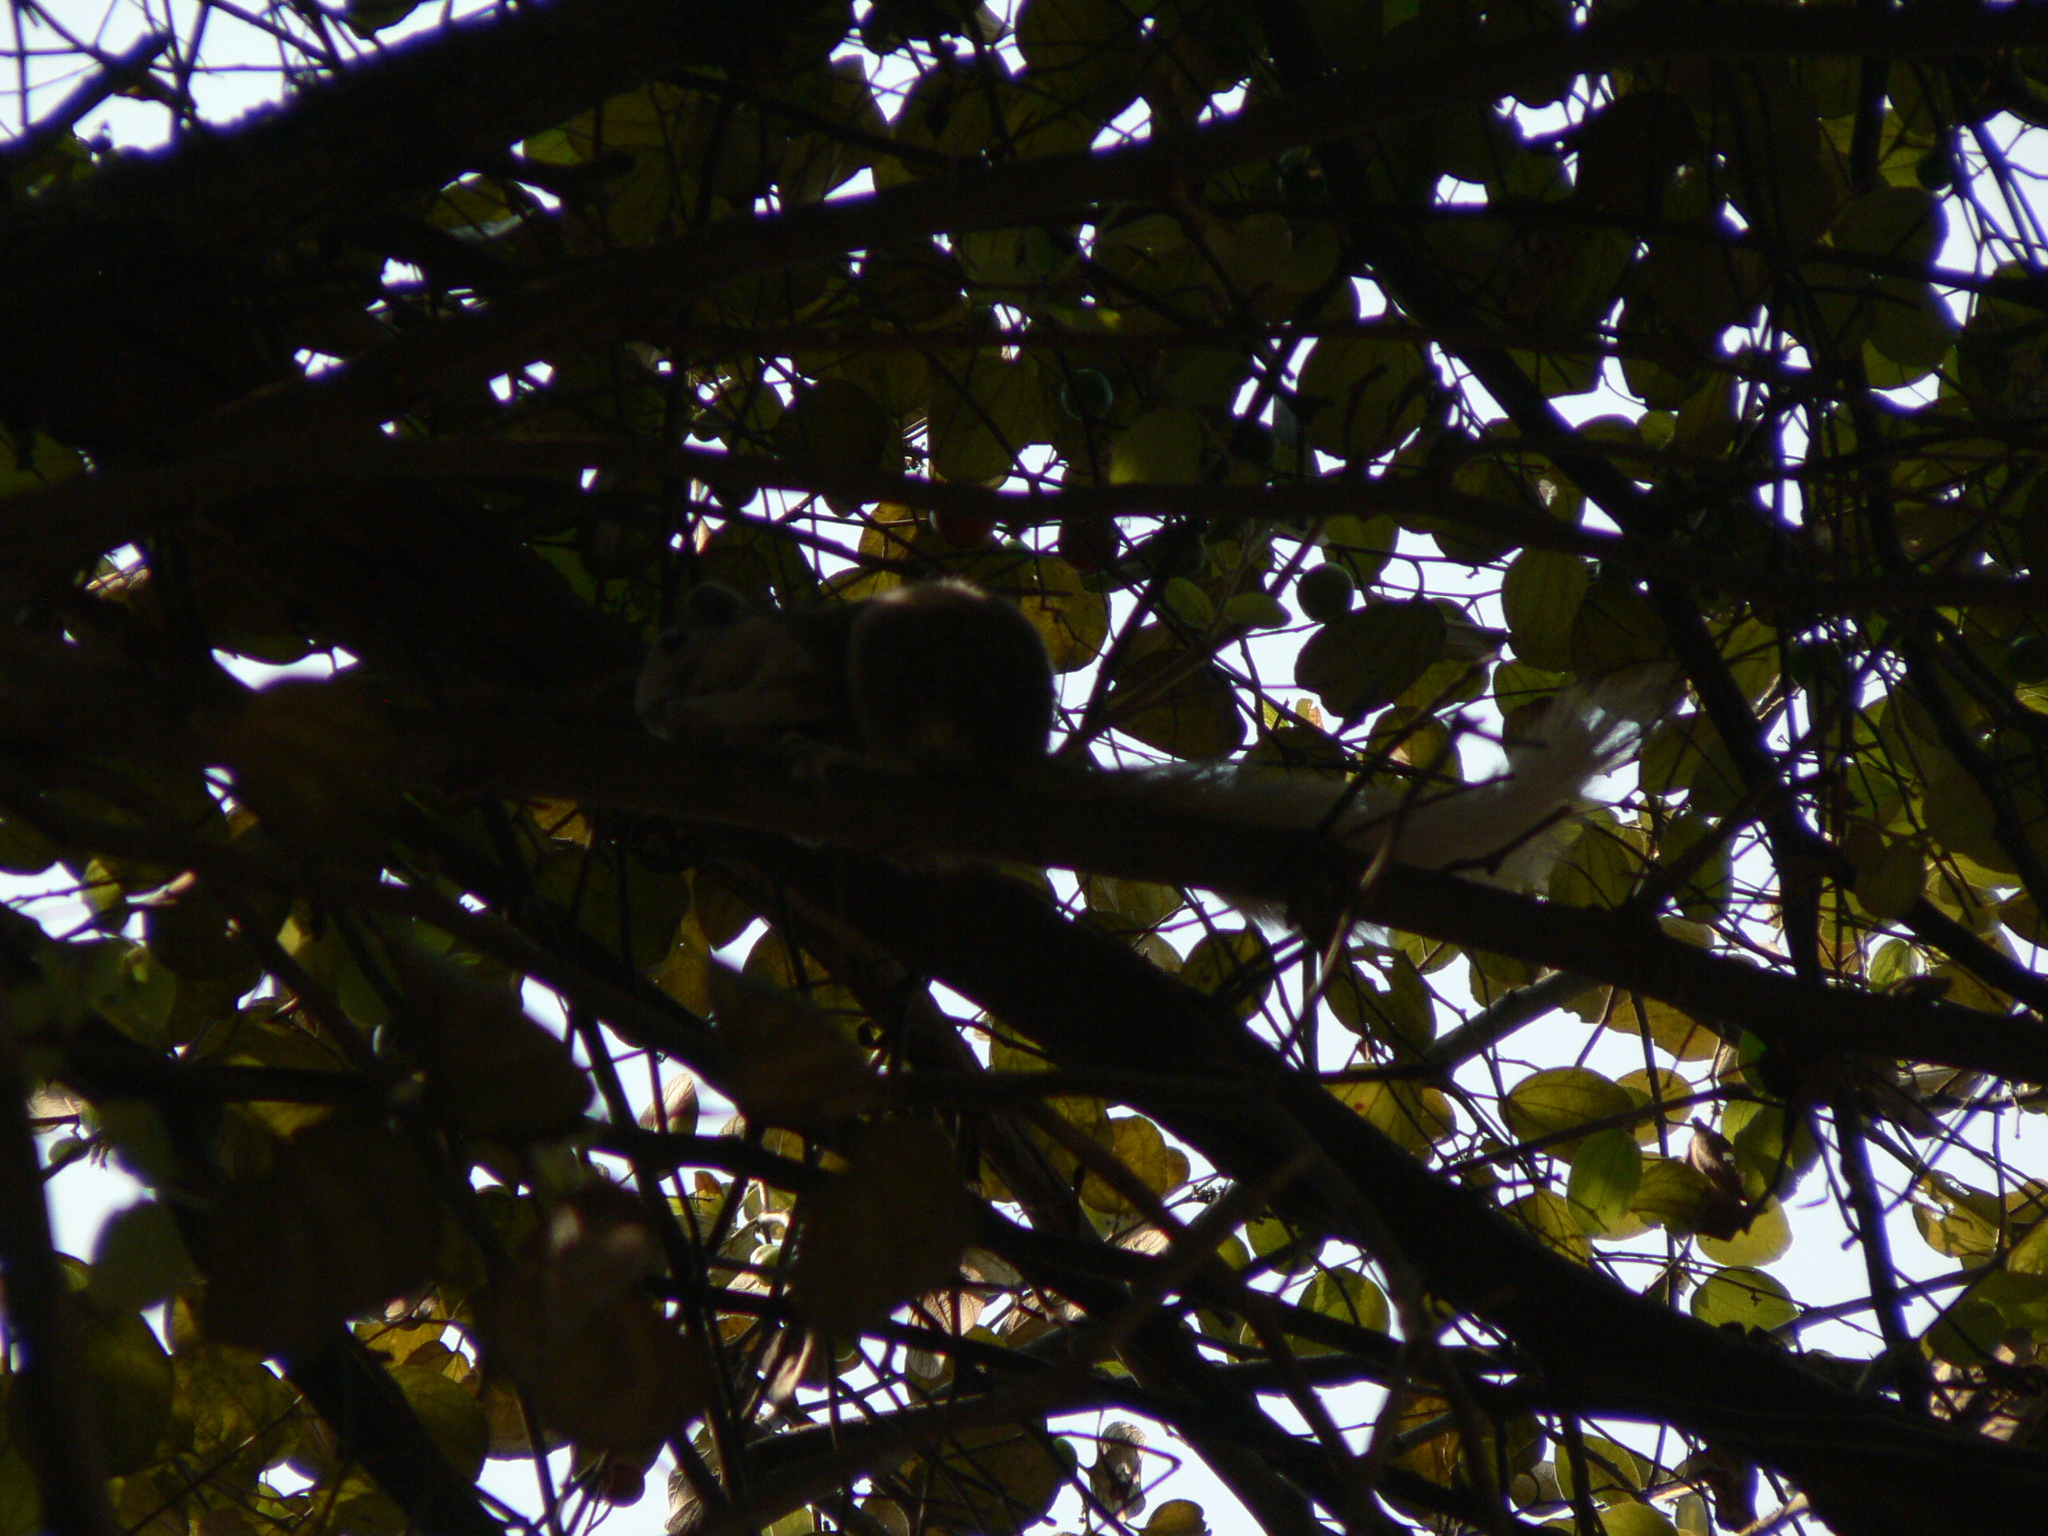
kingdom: Animalia
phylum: Chordata
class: Mammalia
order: Rodentia
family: Sciuridae
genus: Callosciurus
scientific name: Callosciurus finlaysonii
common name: Finlayson's squirrel
